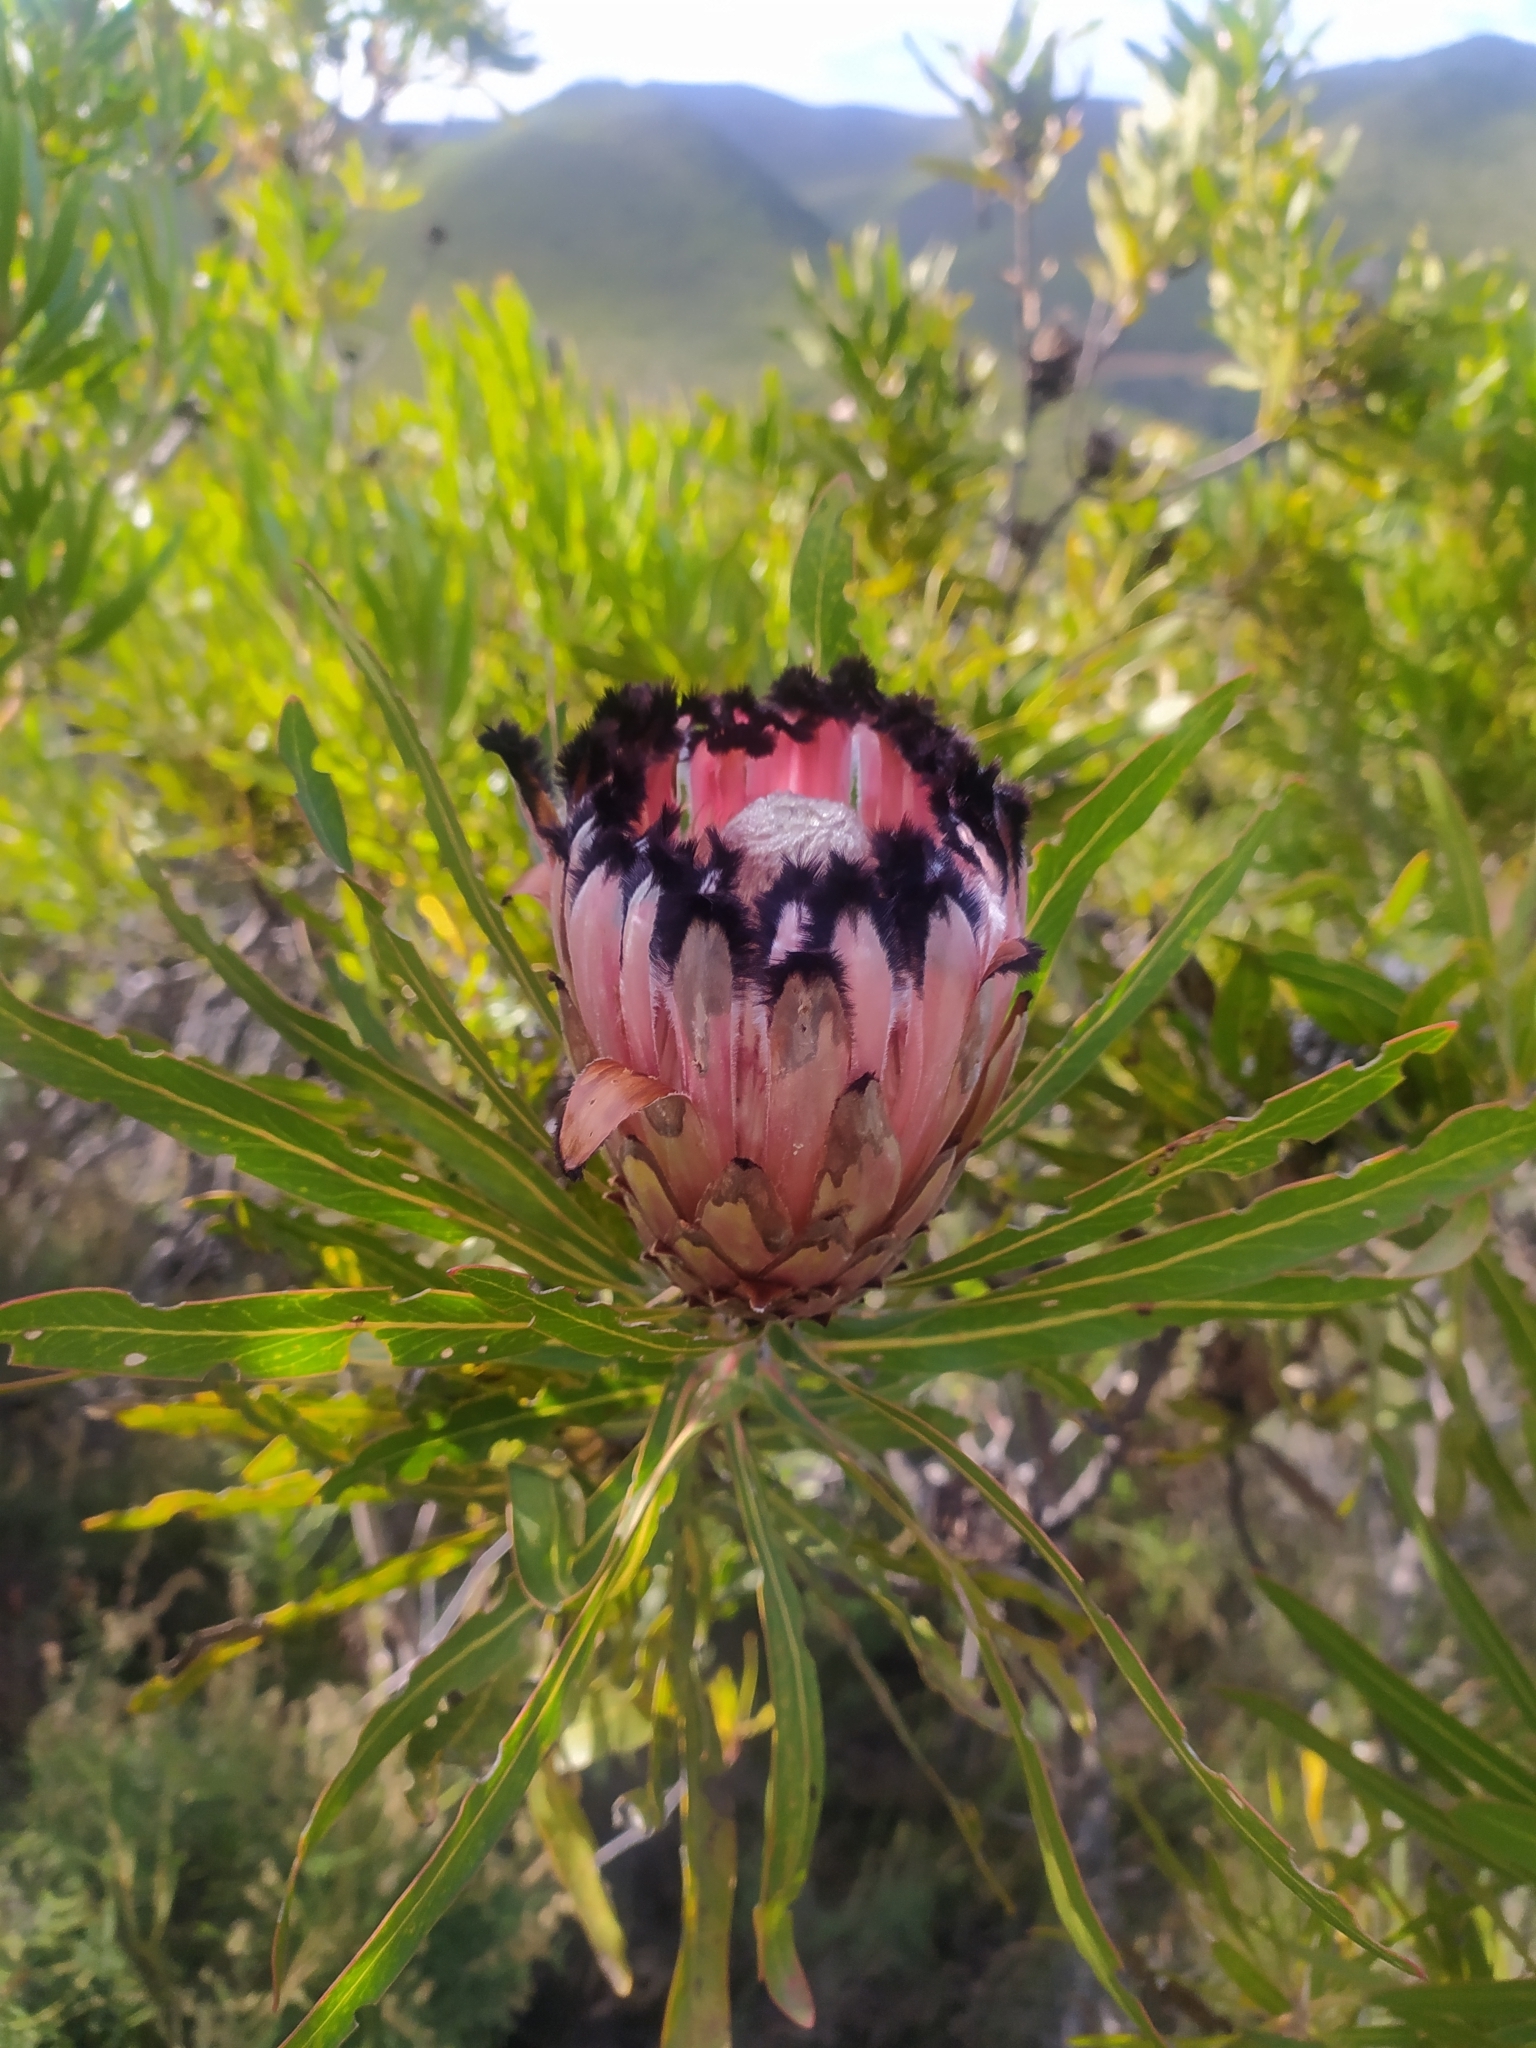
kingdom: Plantae
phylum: Tracheophyta
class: Magnoliopsida
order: Proteales
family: Proteaceae
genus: Protea
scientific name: Protea neriifolia
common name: Blue sugarbush
